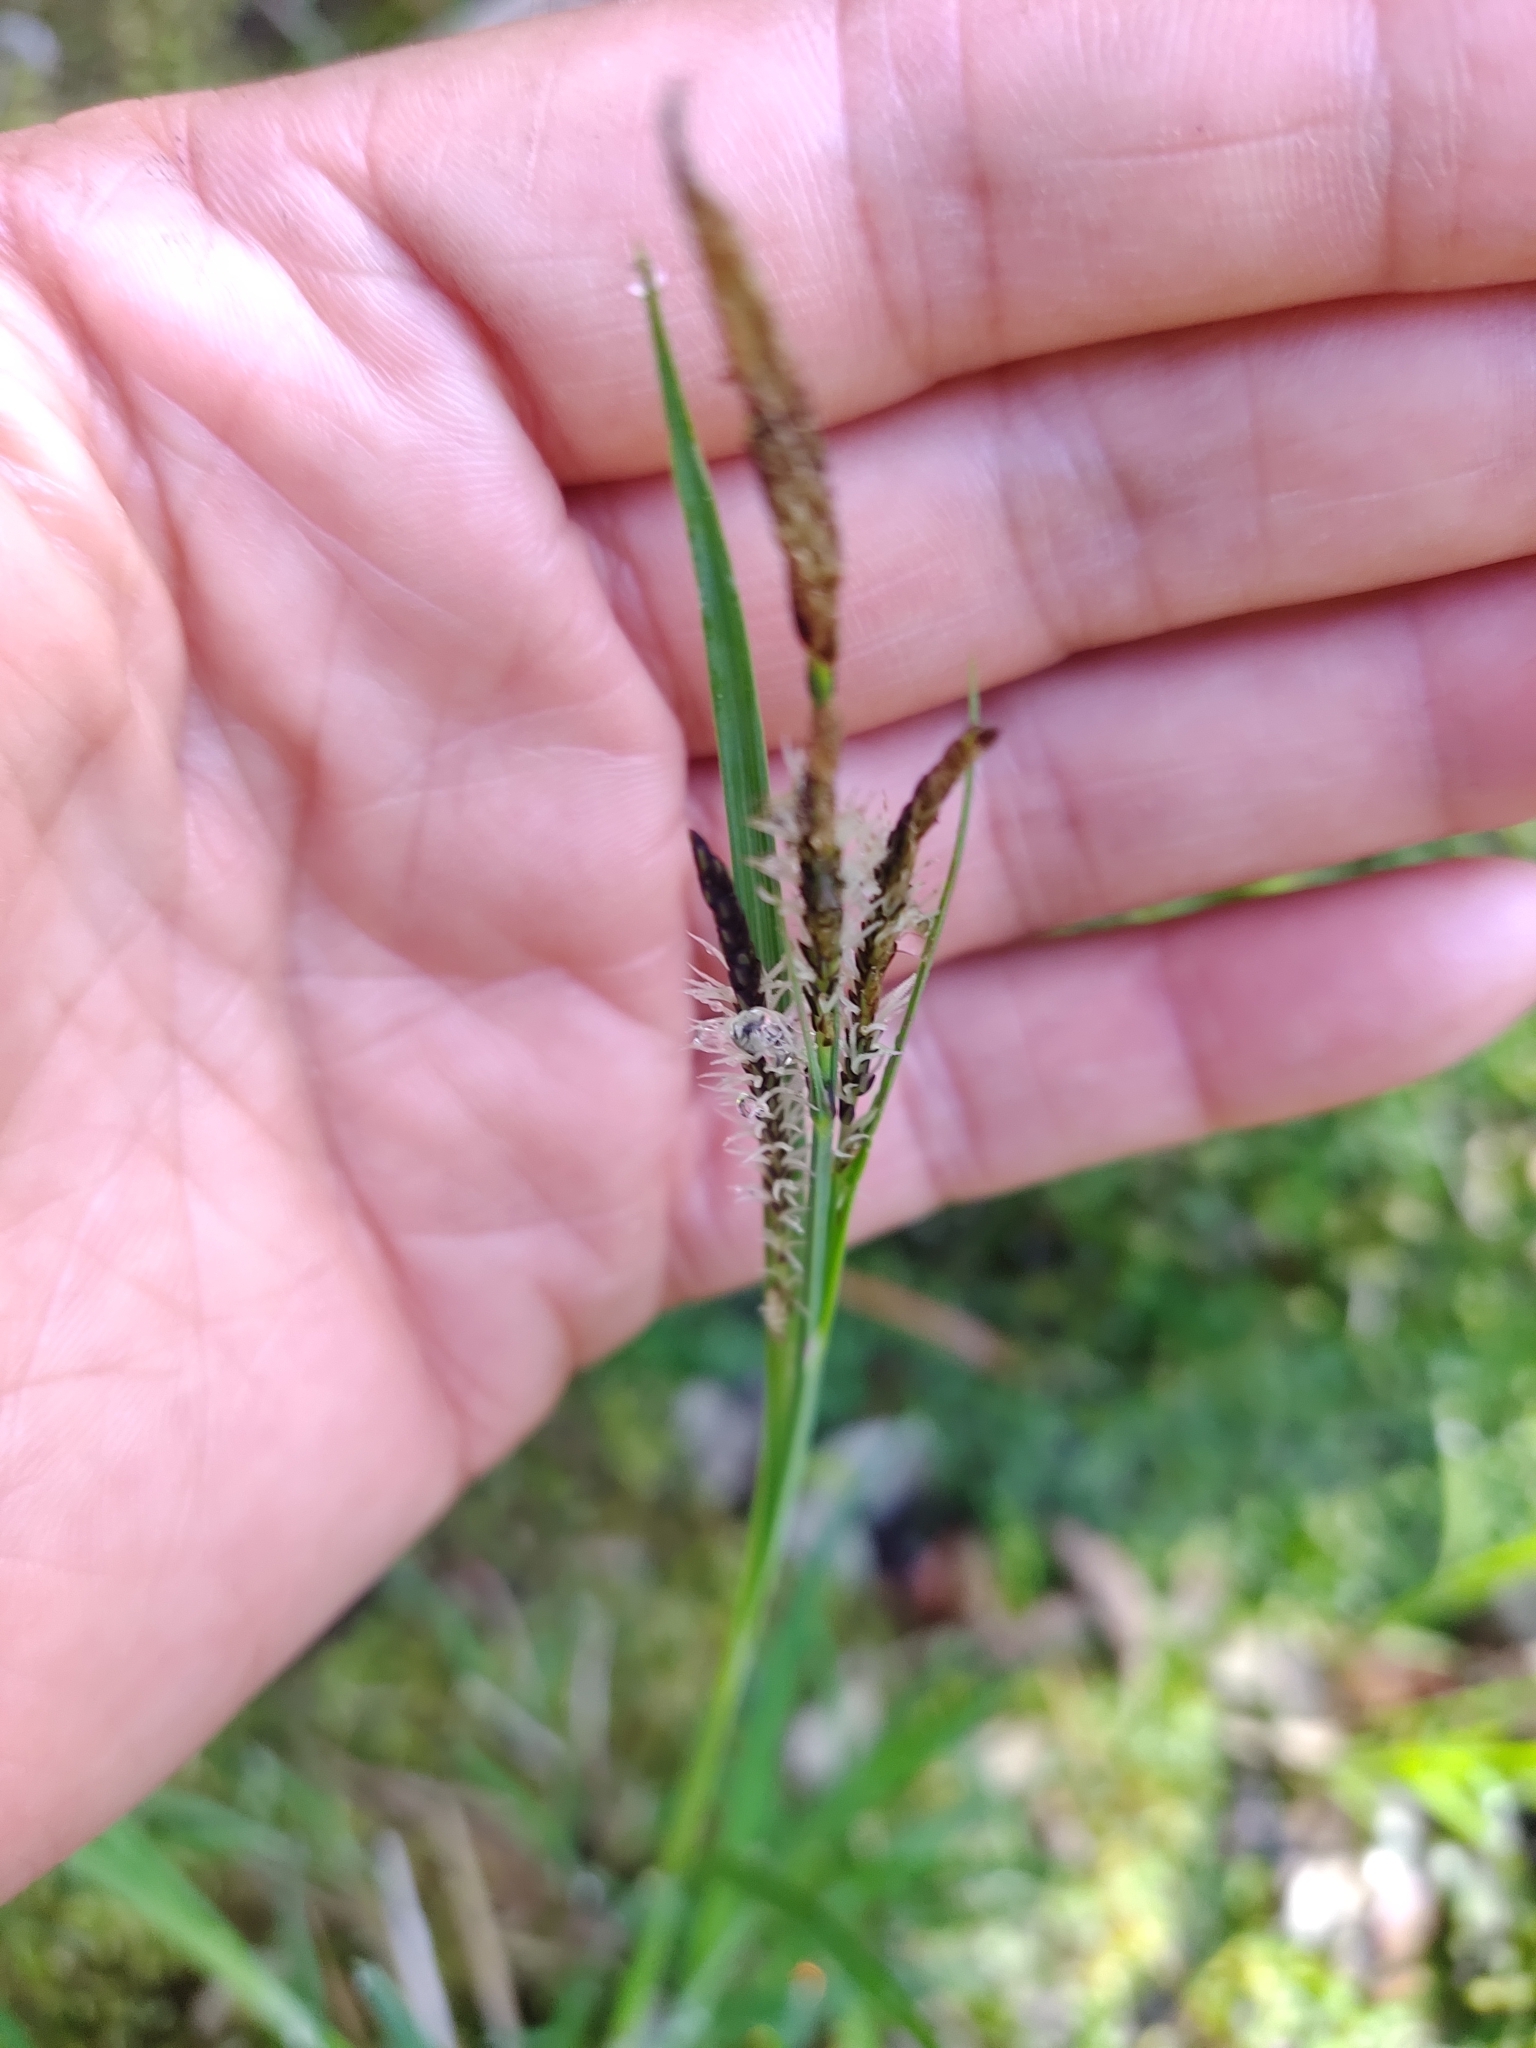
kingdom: Plantae
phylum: Tracheophyta
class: Liliopsida
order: Poales
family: Cyperaceae
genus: Carex
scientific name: Carex elata
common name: Tufted sedge
